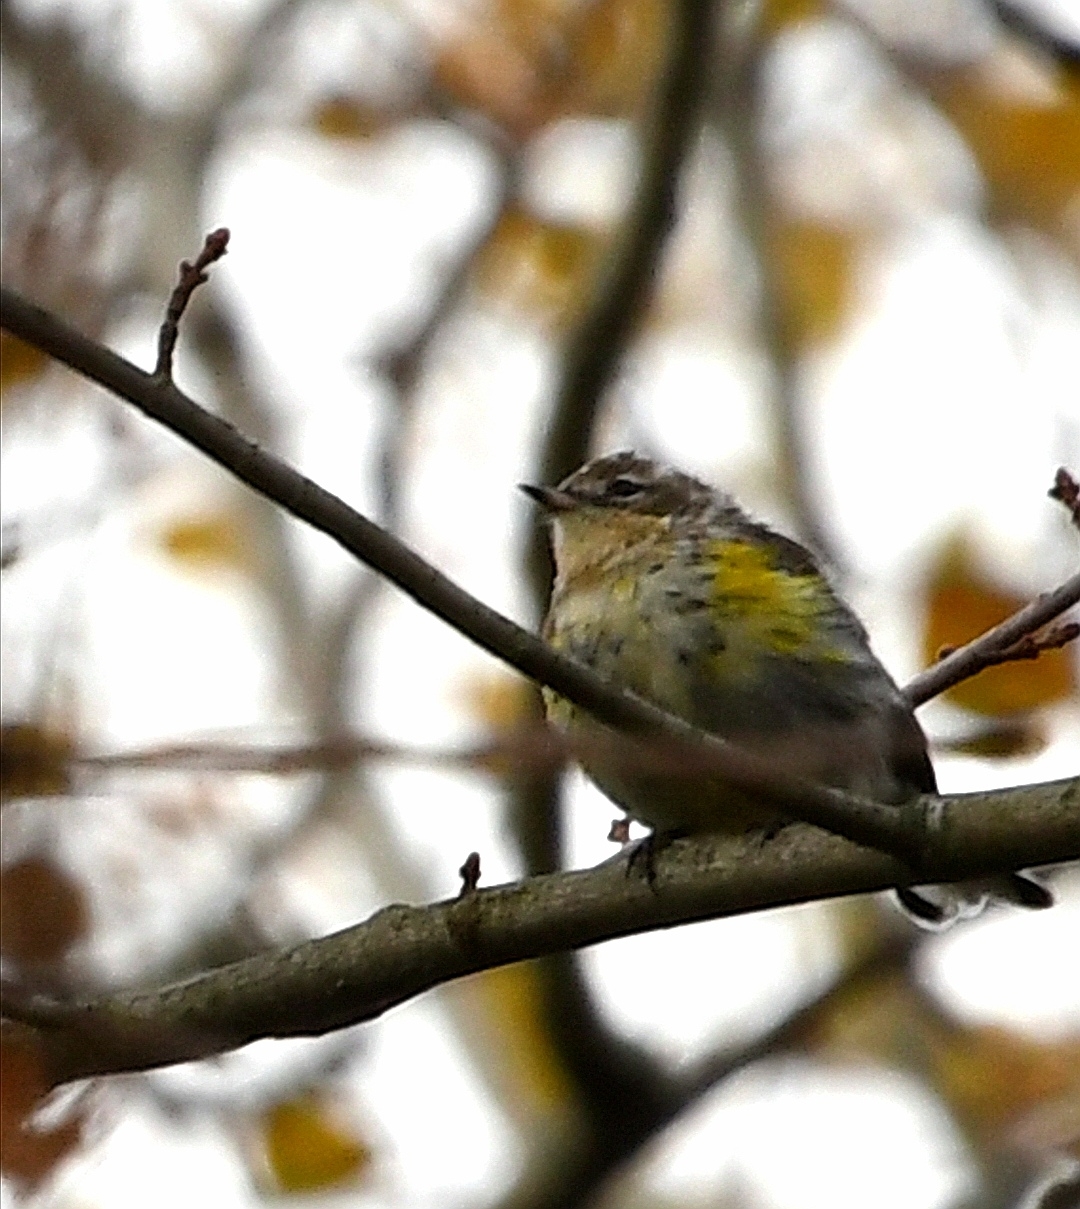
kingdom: Animalia
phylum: Chordata
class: Aves
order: Passeriformes
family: Parulidae
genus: Setophaga
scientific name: Setophaga coronata
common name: Myrtle warbler
